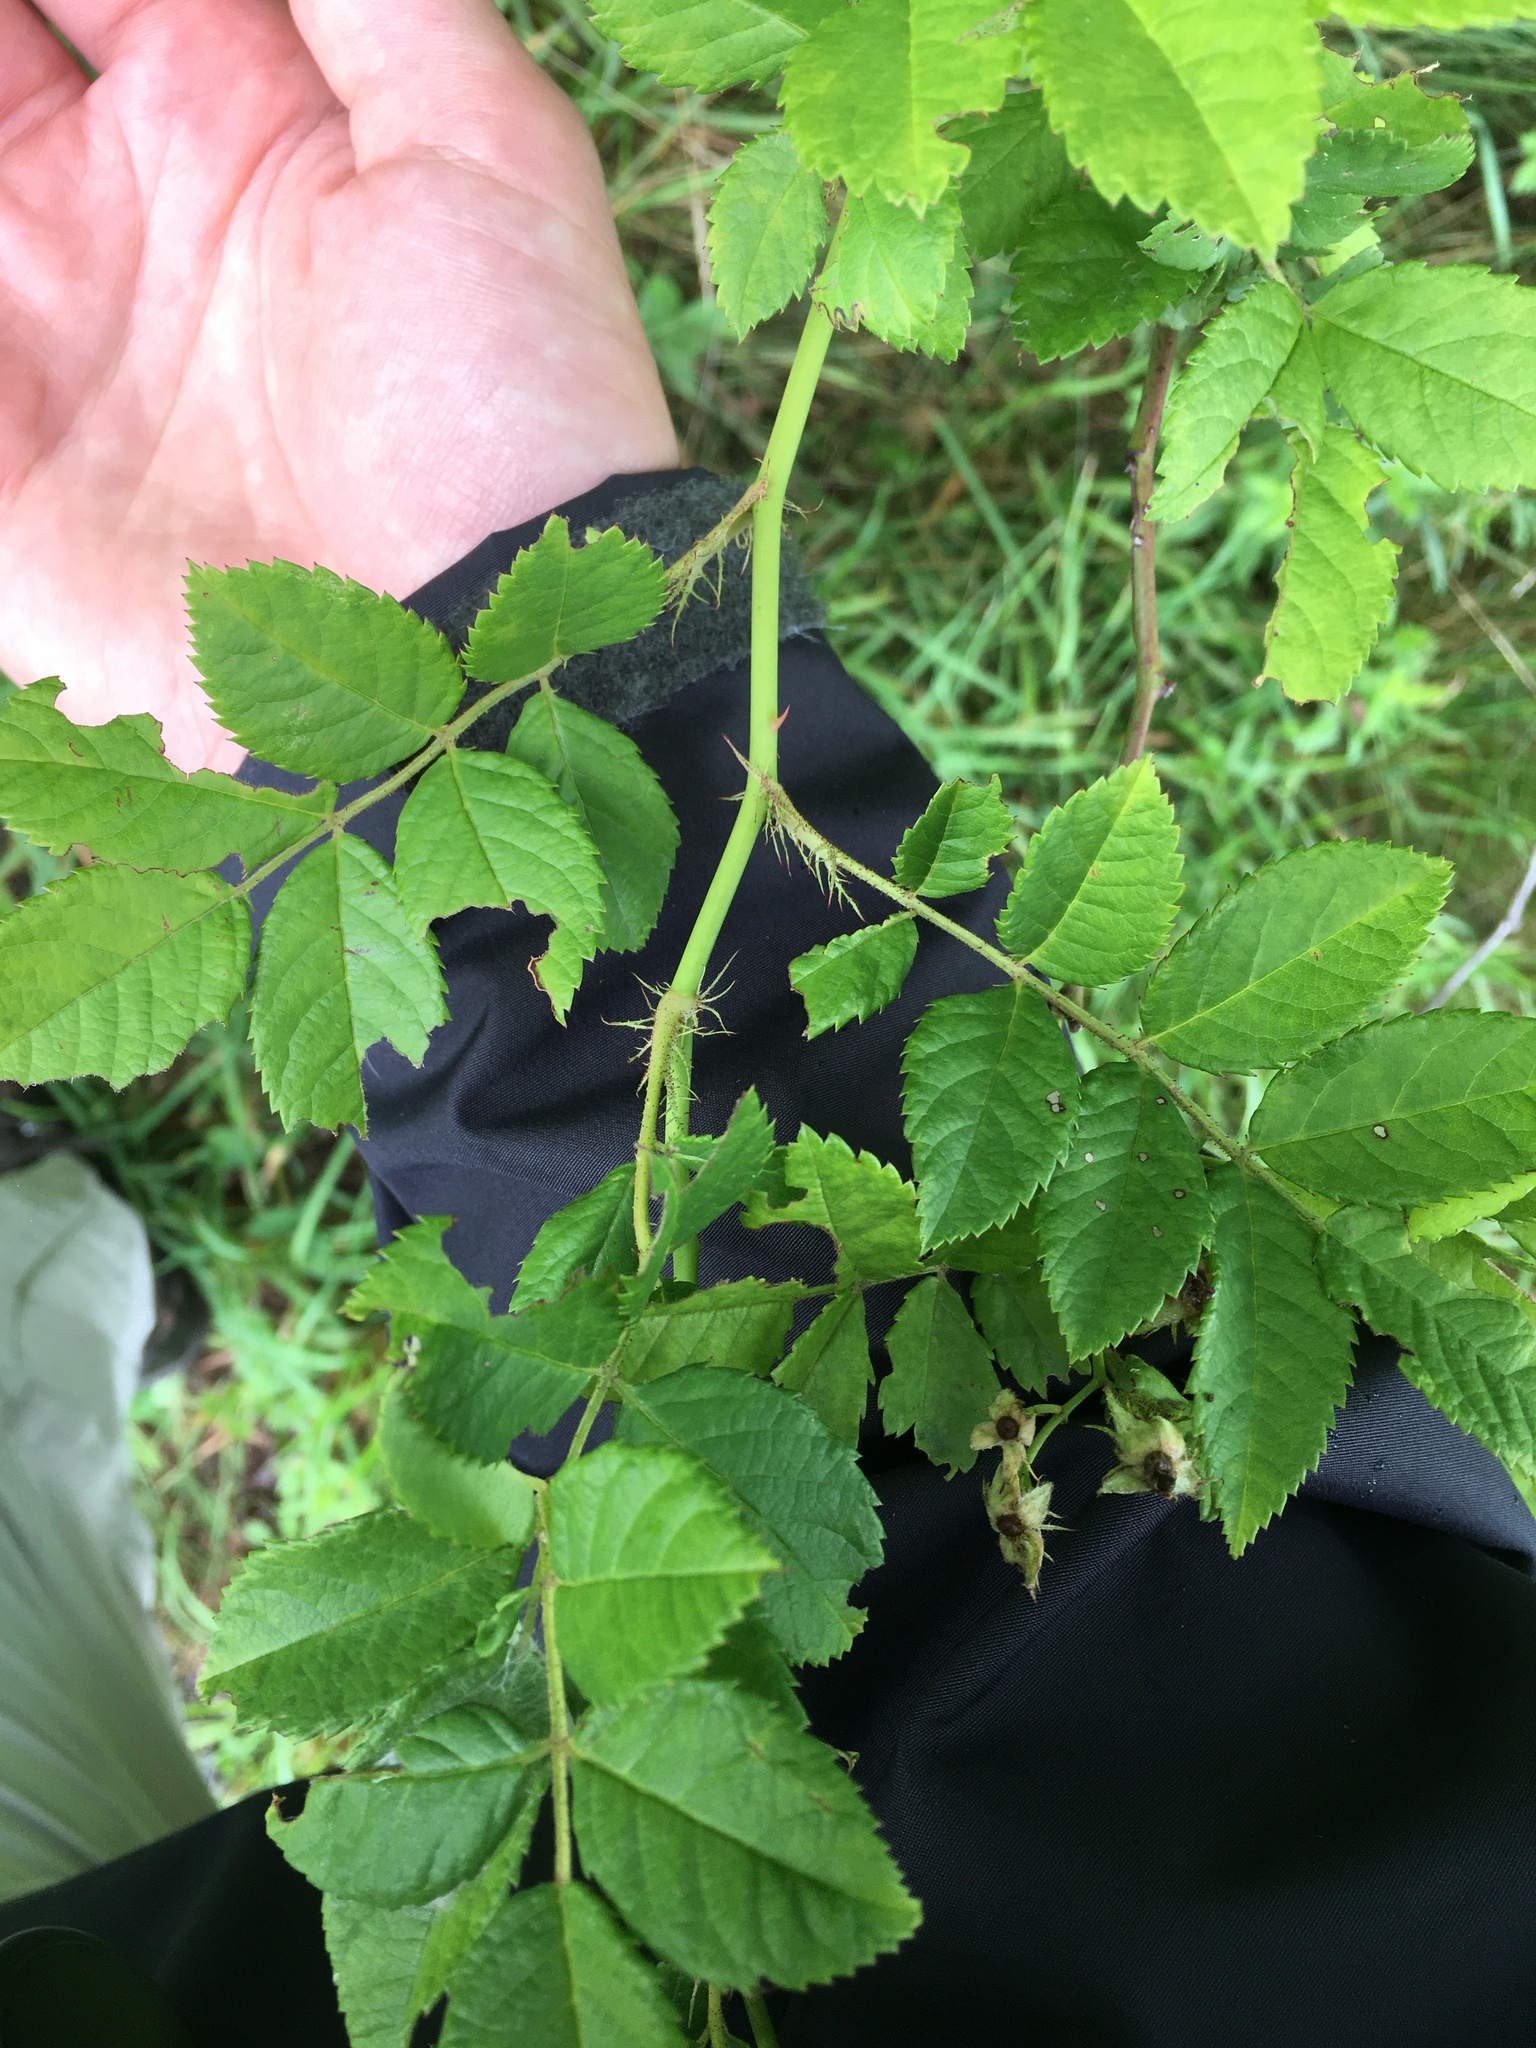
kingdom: Plantae
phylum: Tracheophyta
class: Magnoliopsida
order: Rosales
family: Rosaceae
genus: Rosa
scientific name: Rosa multiflora
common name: Multiflora rose
